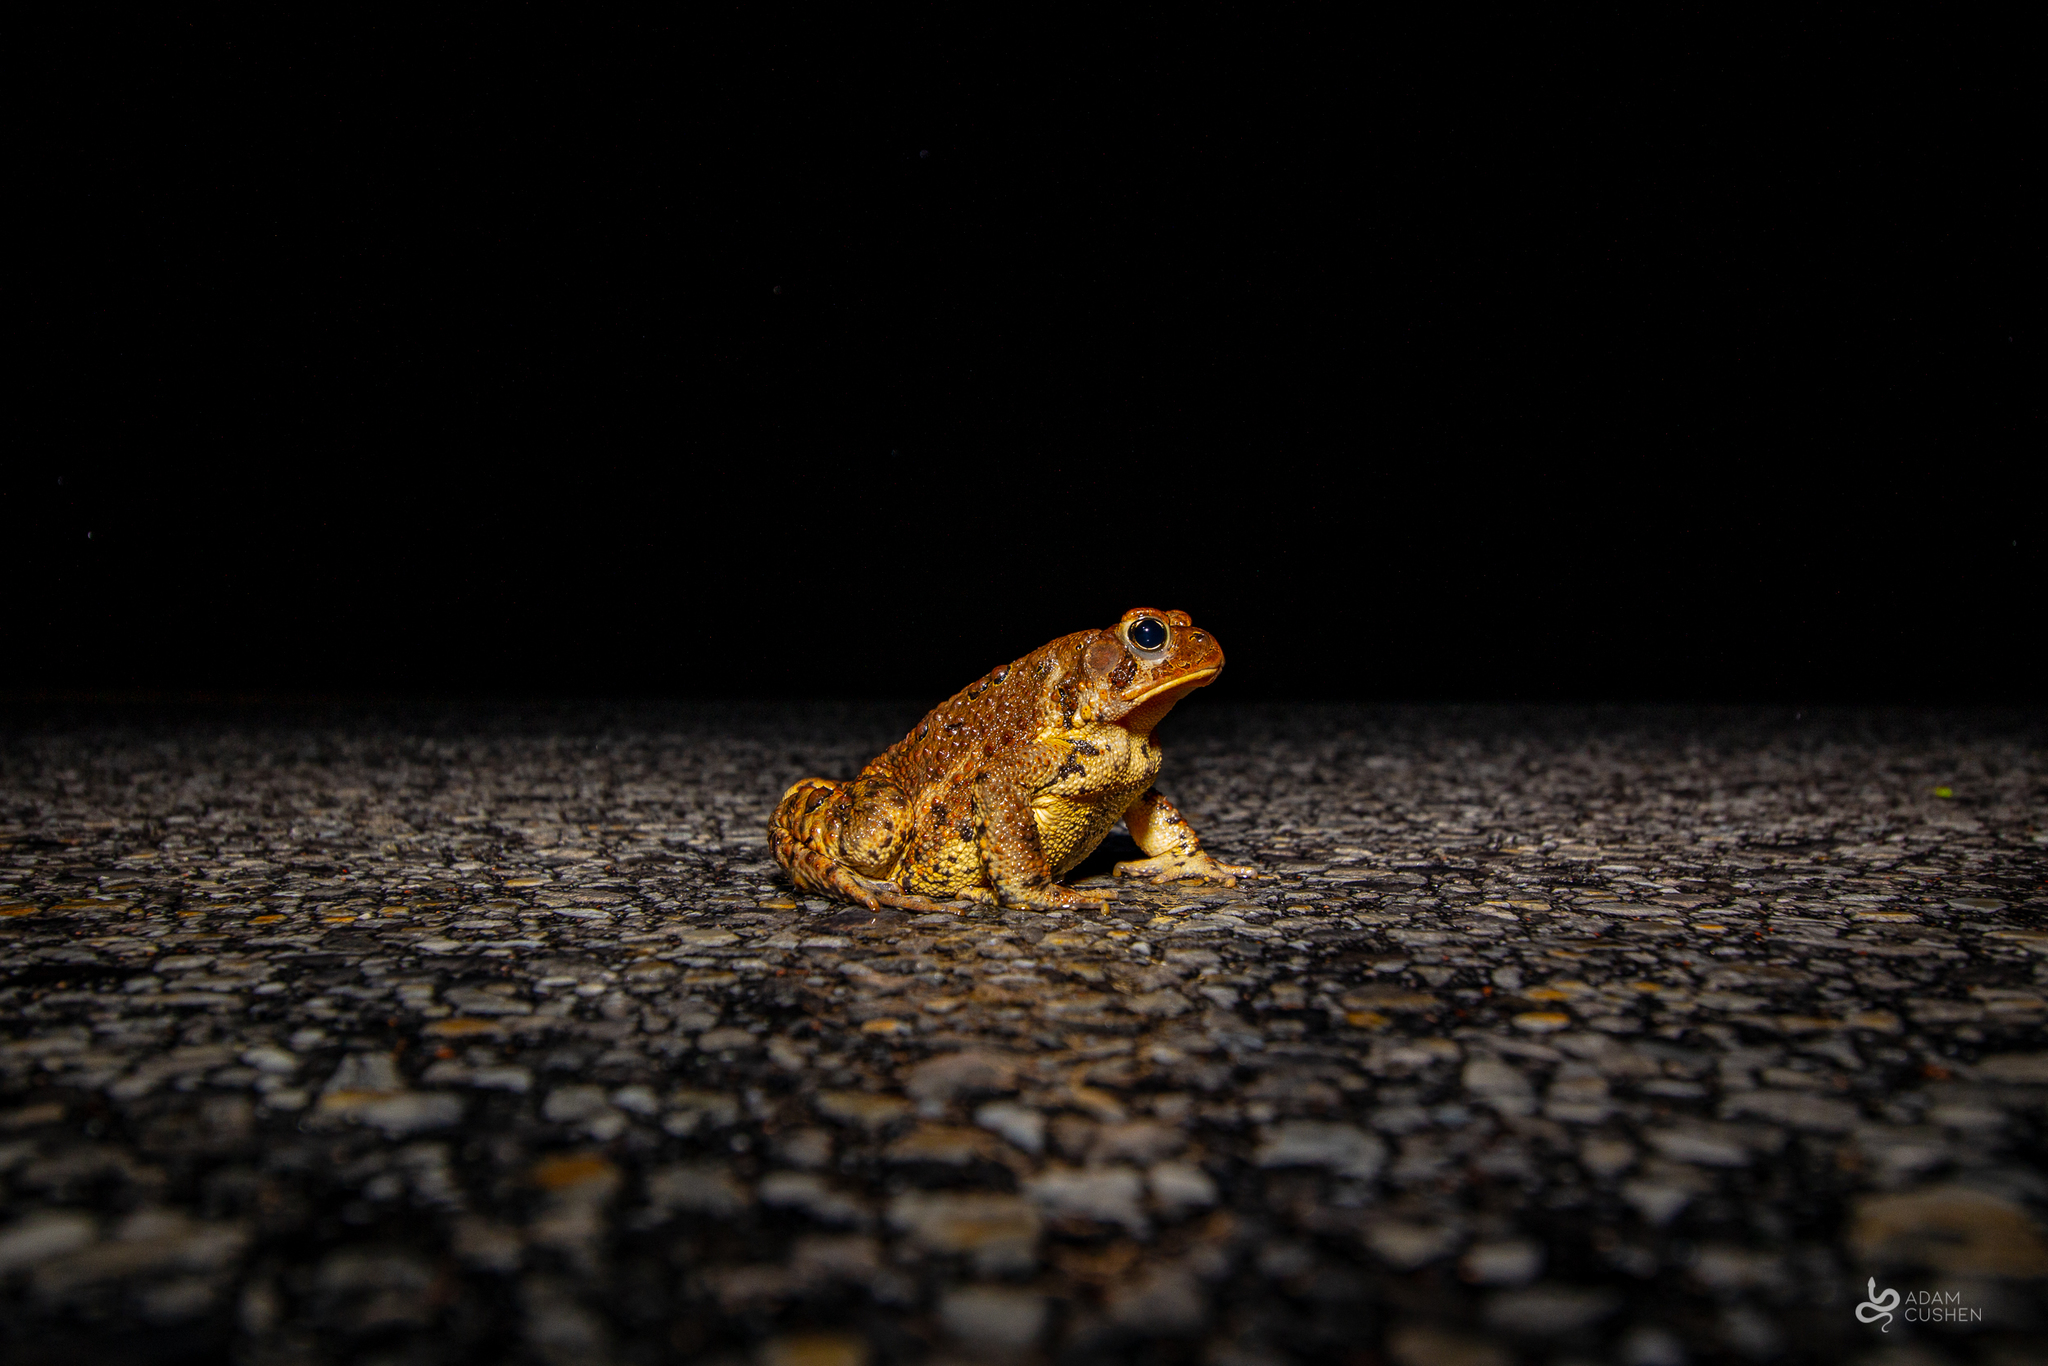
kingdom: Animalia
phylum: Chordata
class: Amphibia
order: Anura
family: Bufonidae
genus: Anaxyrus
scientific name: Anaxyrus americanus
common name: American toad
